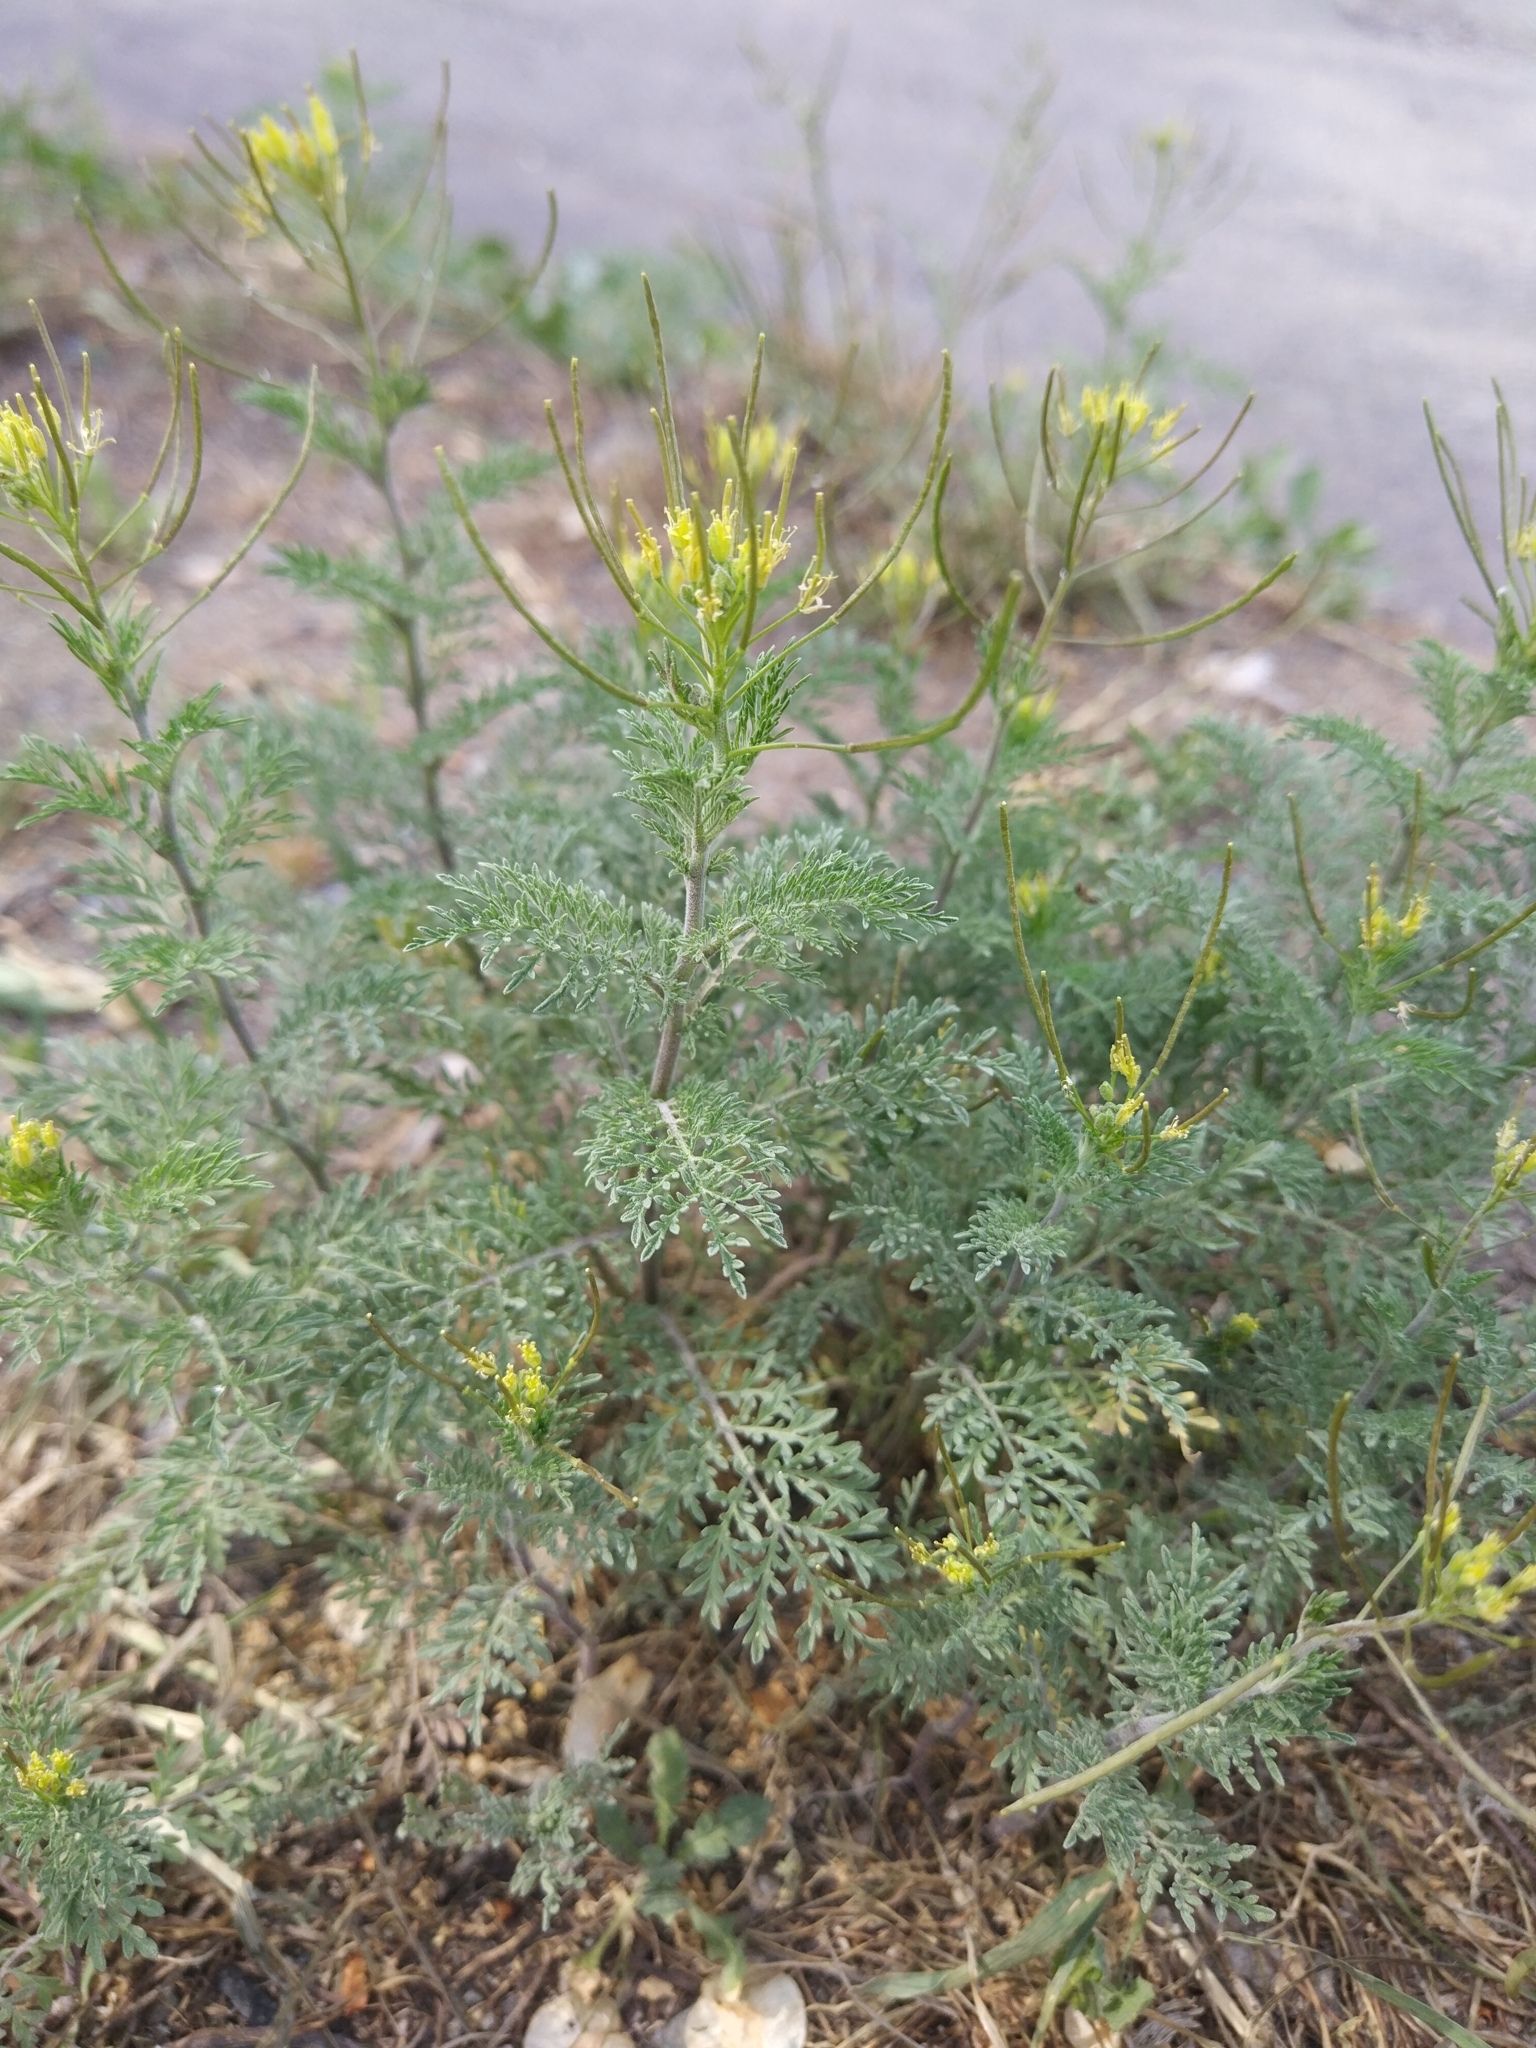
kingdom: Plantae
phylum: Tracheophyta
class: Magnoliopsida
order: Brassicales
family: Brassicaceae
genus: Descurainia
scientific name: Descurainia pinnata
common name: Western tansy mustard
